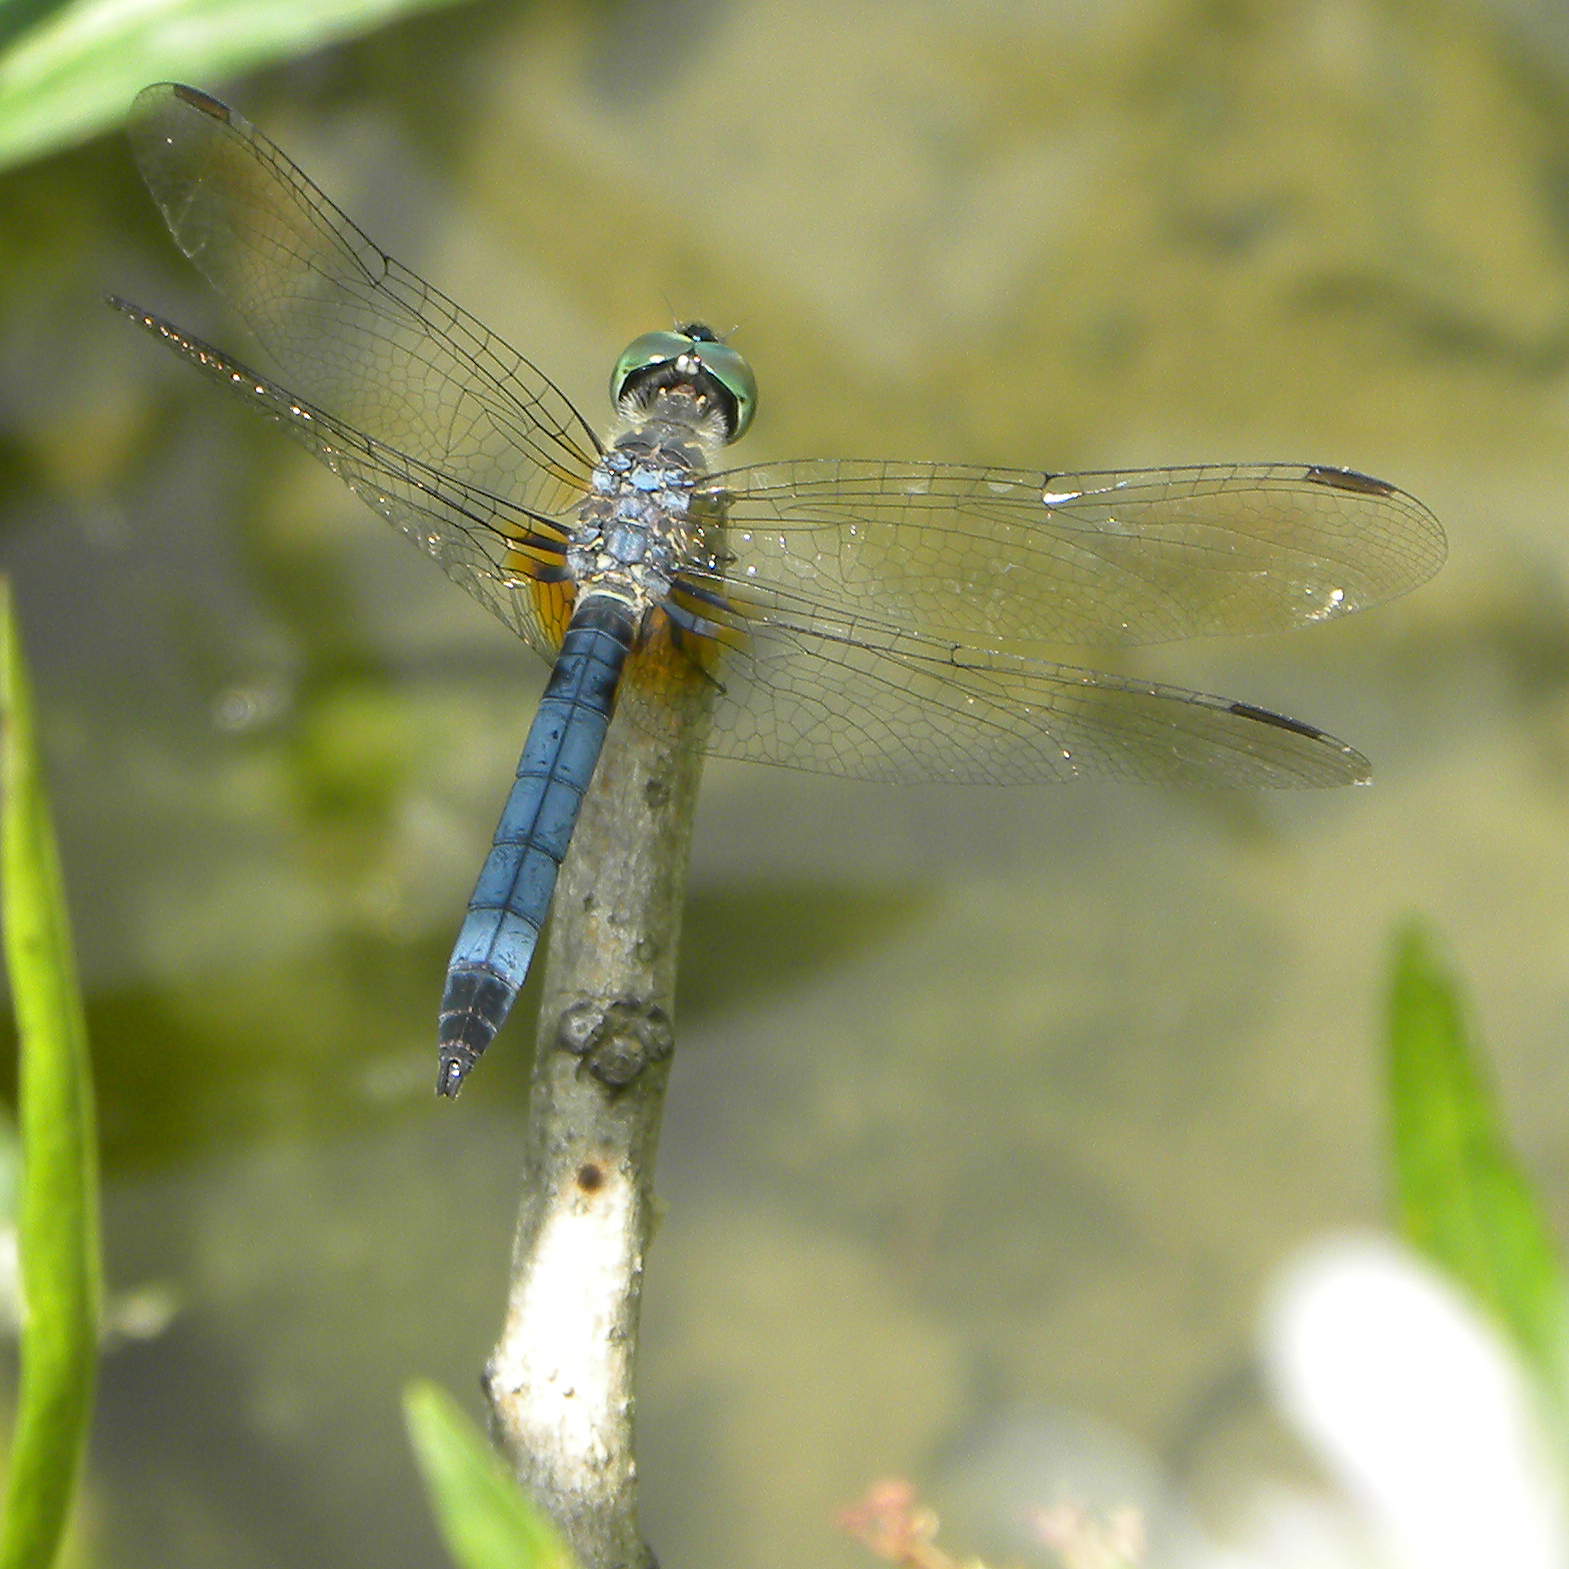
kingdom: Animalia
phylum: Arthropoda
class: Insecta
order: Odonata
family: Libellulidae
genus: Pachydiplax
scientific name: Pachydiplax longipennis
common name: Blue dasher
